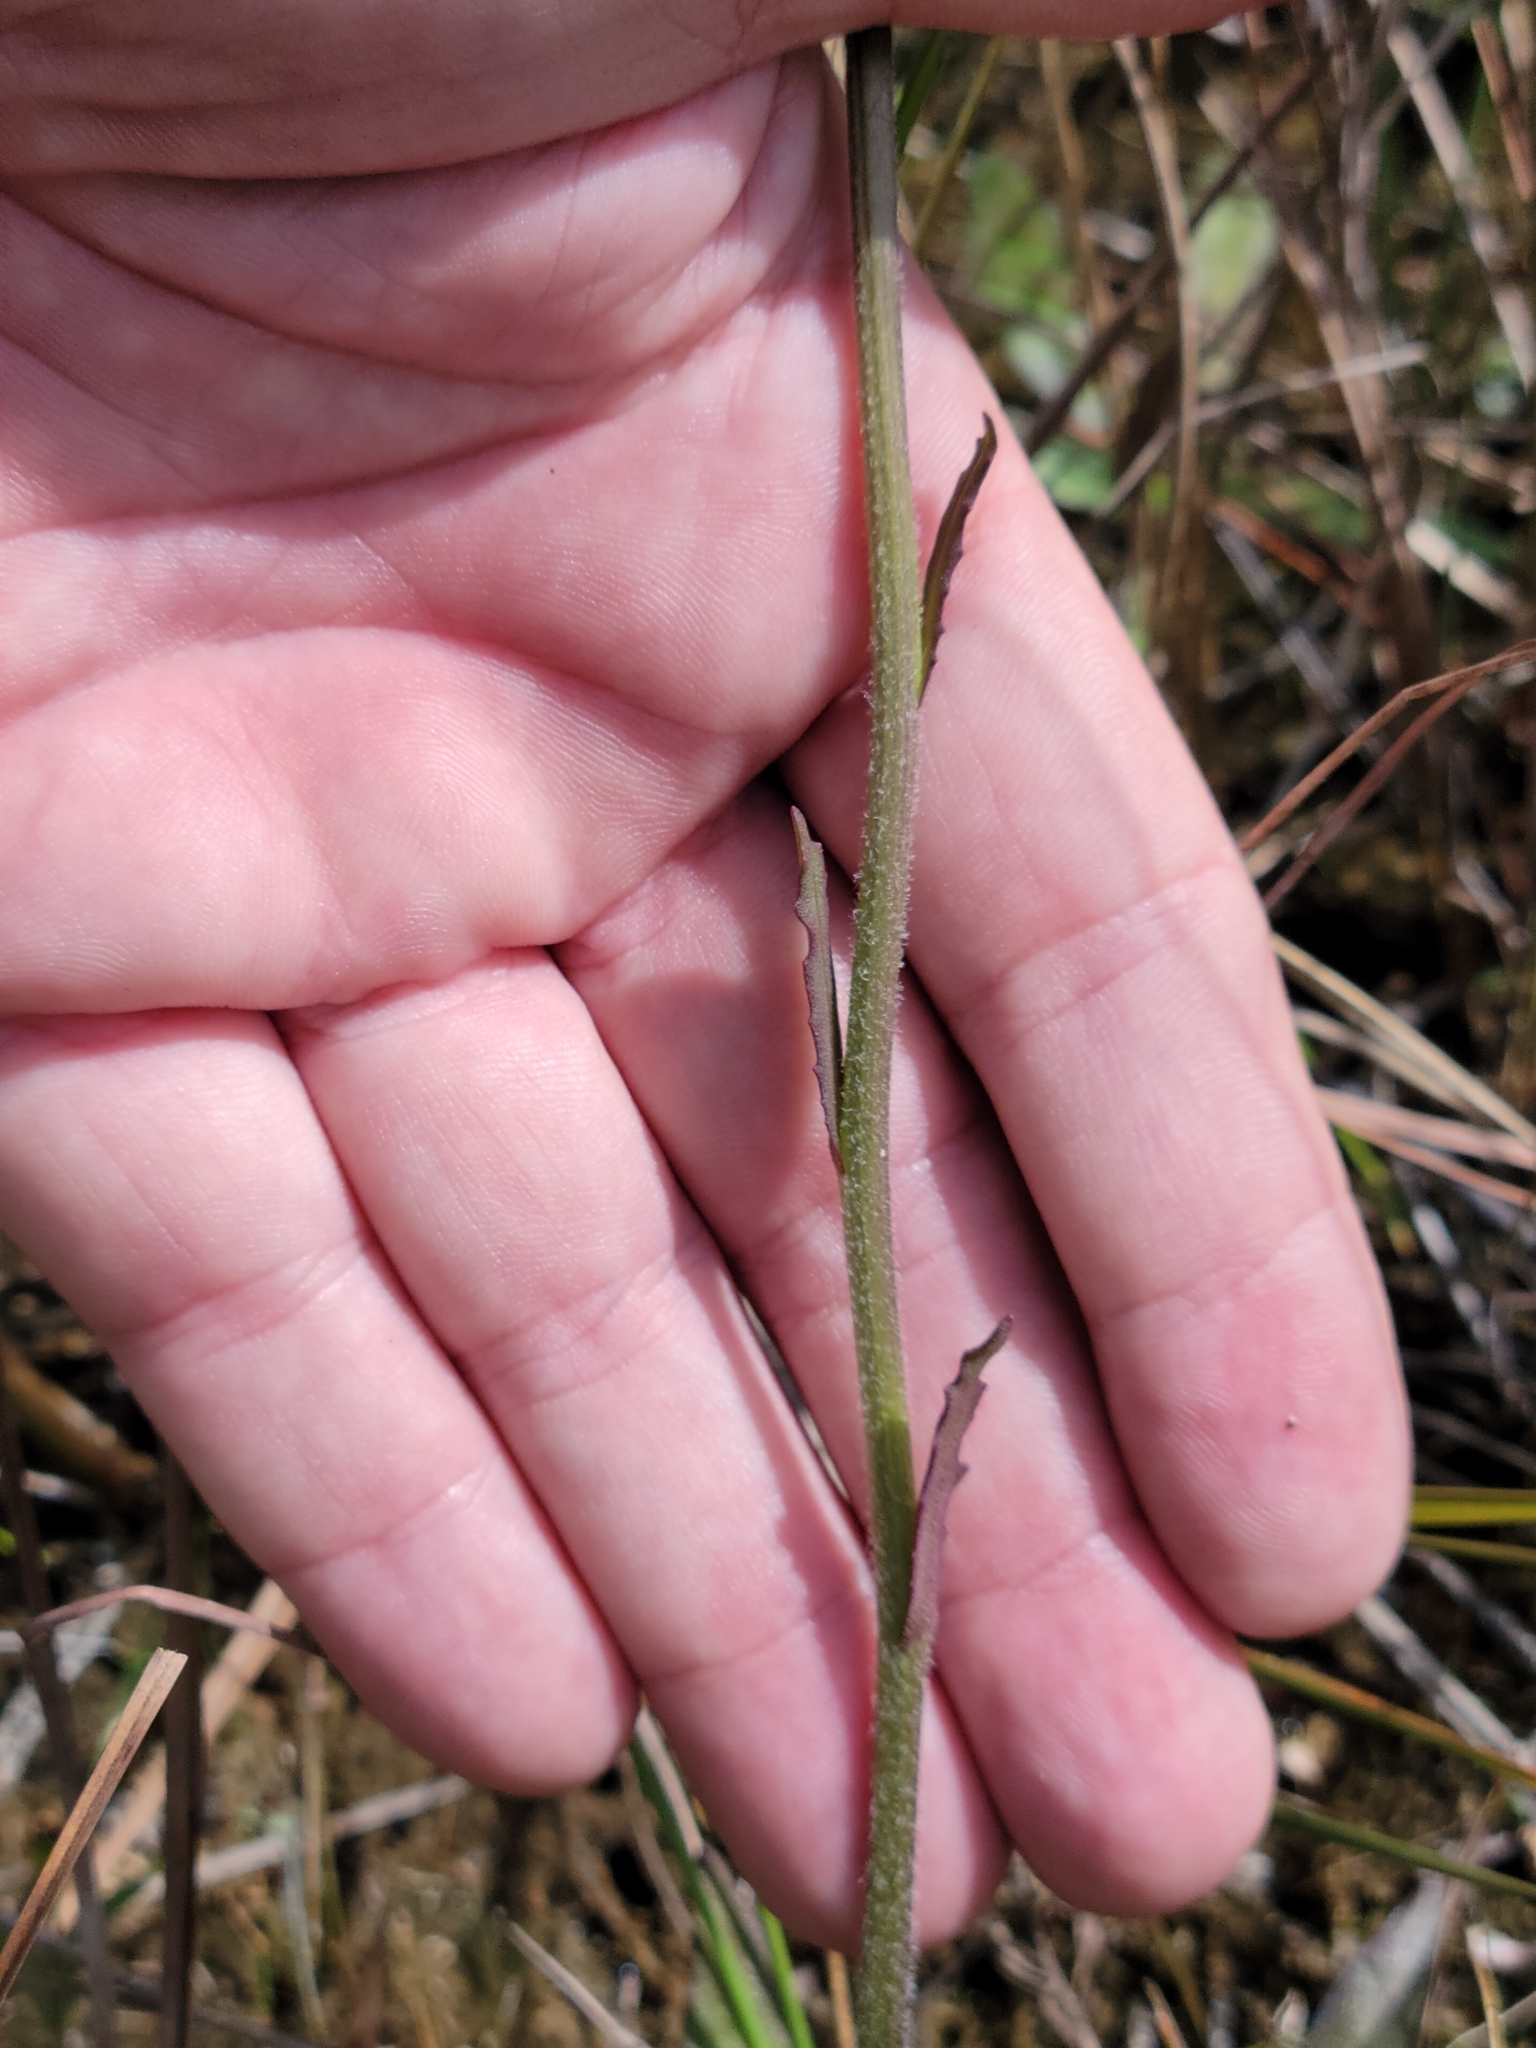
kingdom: Plantae
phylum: Tracheophyta
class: Magnoliopsida
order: Asterales
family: Asteraceae
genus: Helenium
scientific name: Helenium pinnatifidum
